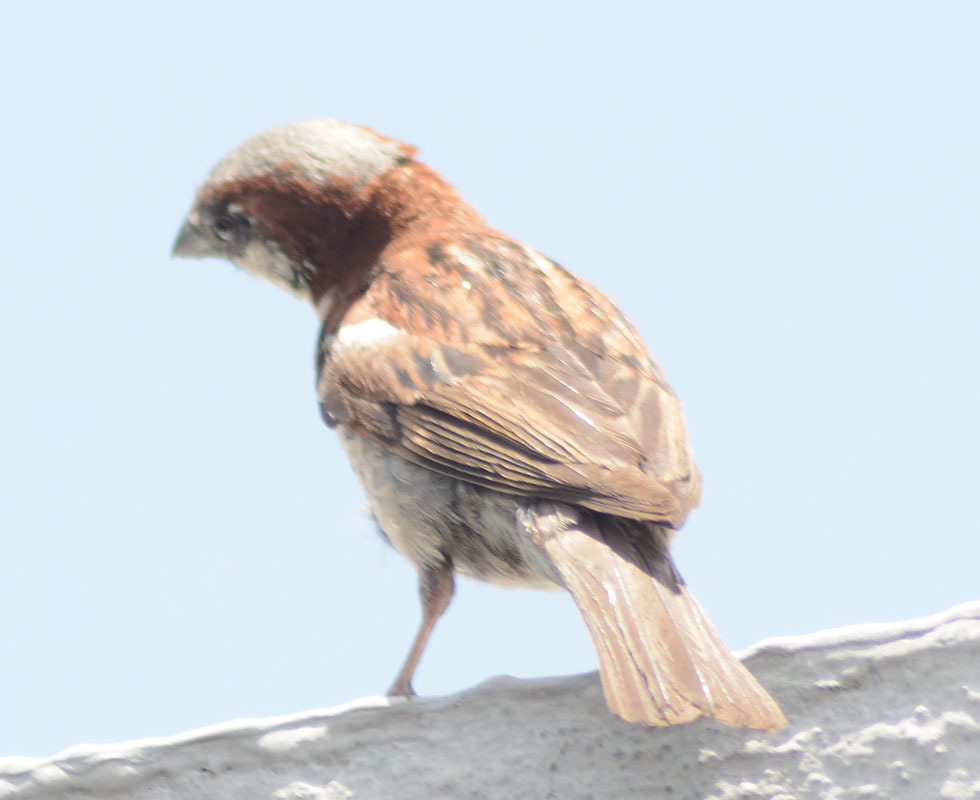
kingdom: Animalia
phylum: Chordata
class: Aves
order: Passeriformes
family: Passeridae
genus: Passer
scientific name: Passer domesticus
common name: House sparrow
